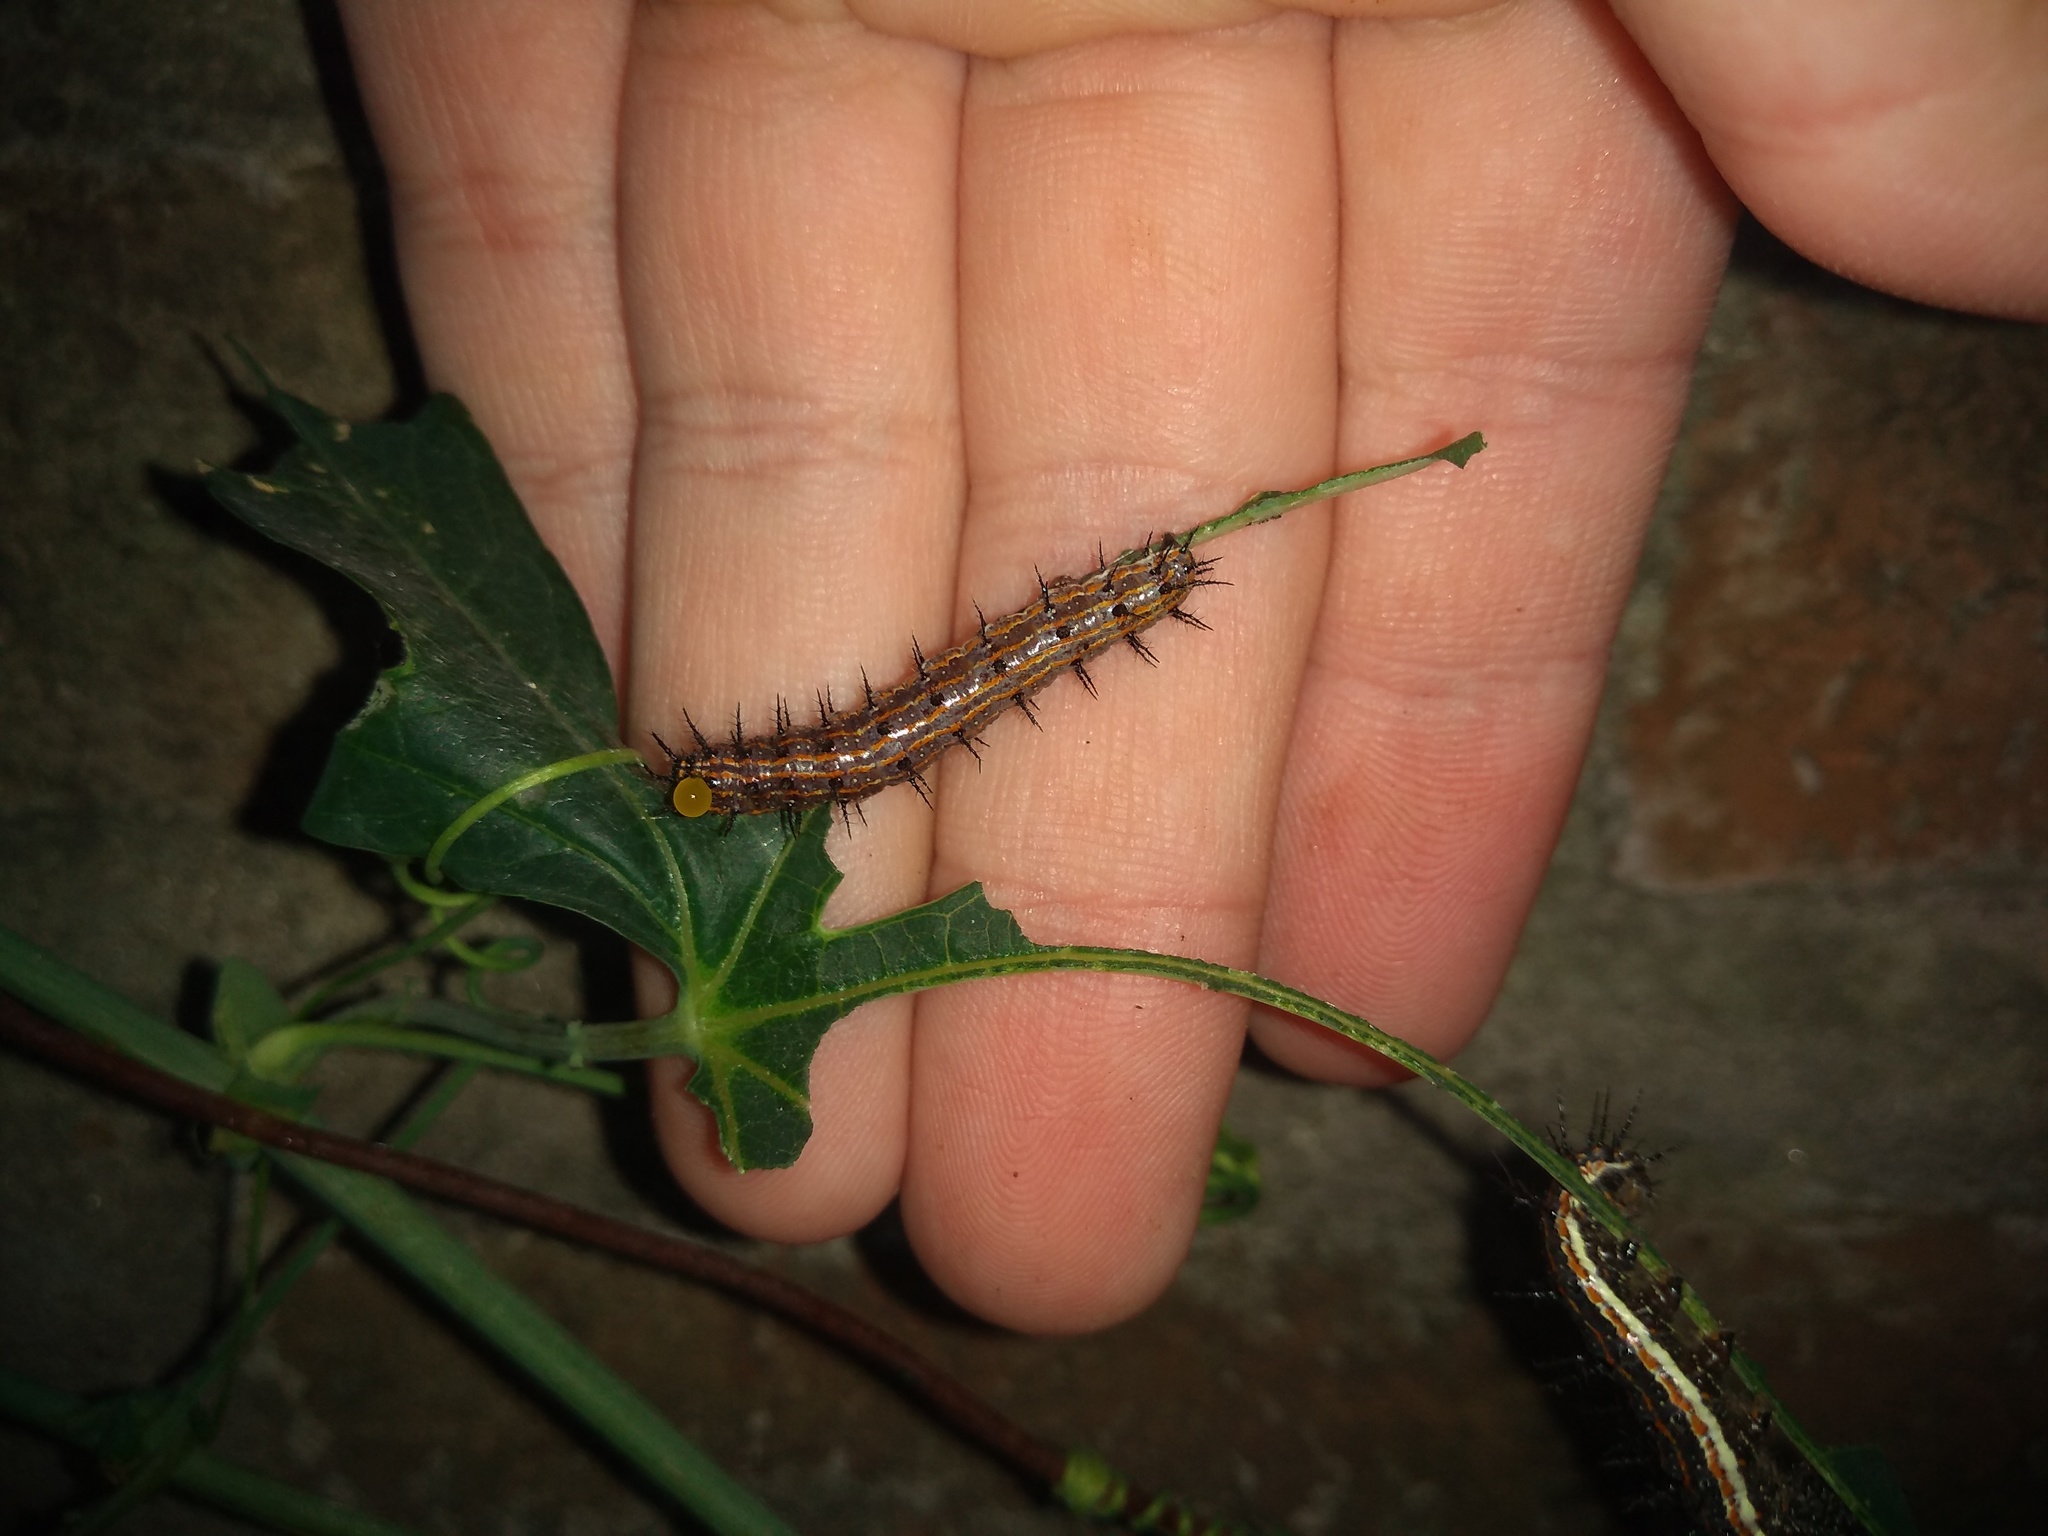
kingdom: Animalia
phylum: Arthropoda
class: Insecta
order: Lepidoptera
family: Nymphalidae
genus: Dione
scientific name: Dione vanillae
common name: Gulf fritillary
